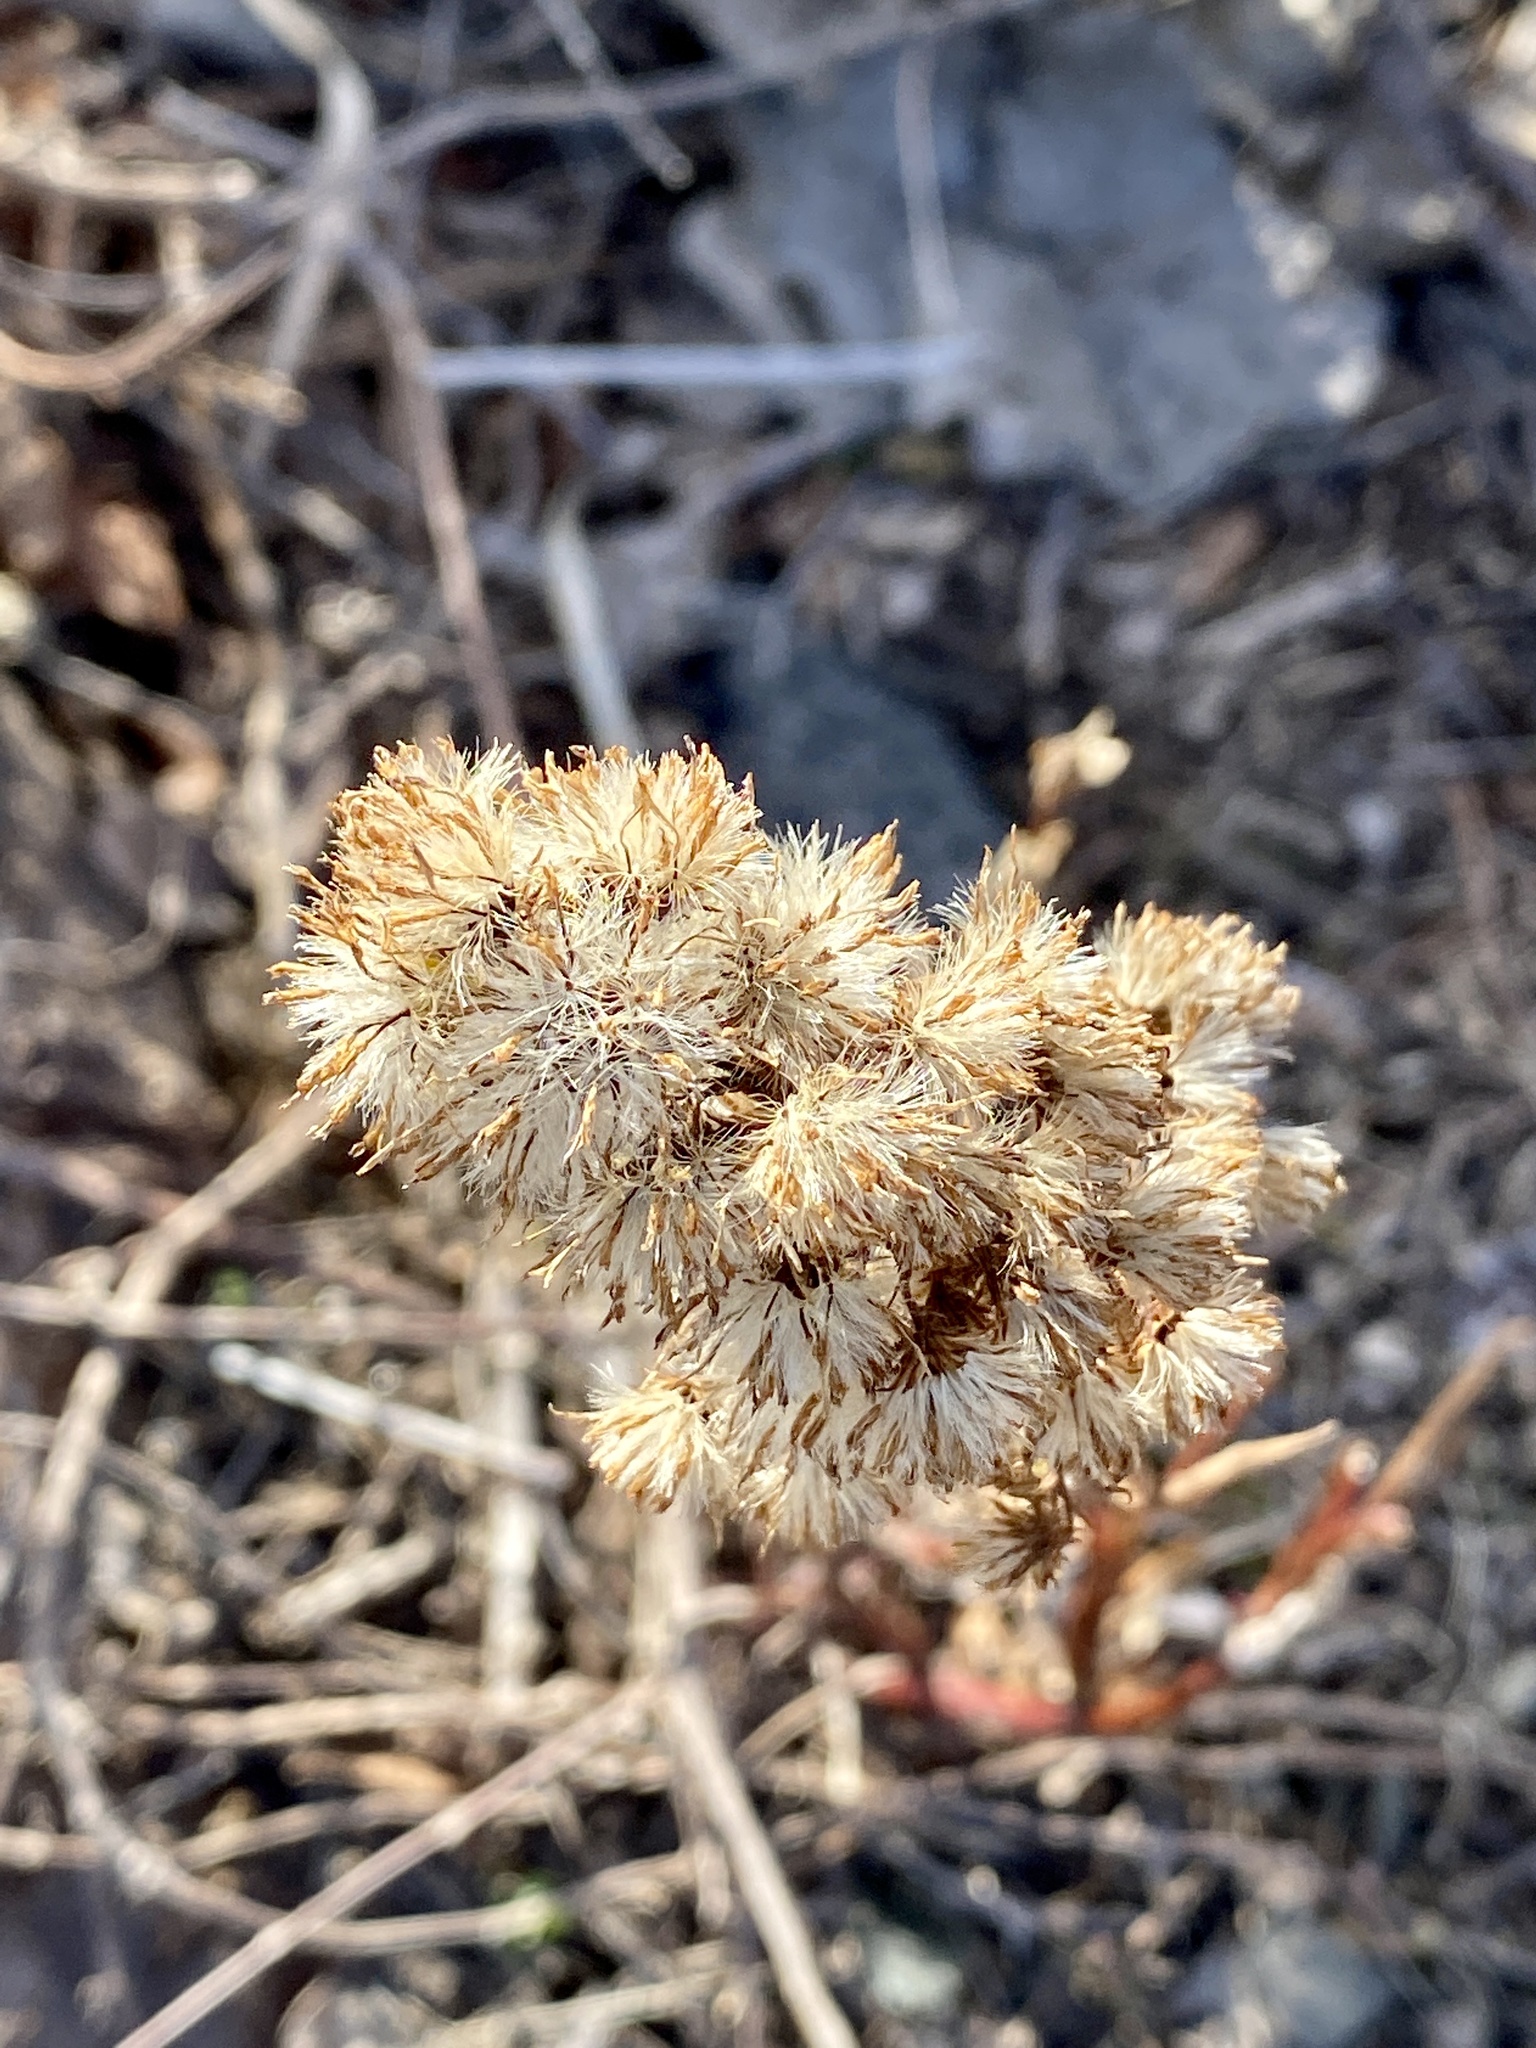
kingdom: Plantae
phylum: Tracheophyta
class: Magnoliopsida
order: Asterales
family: Asteraceae
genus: Solidago
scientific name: Solidago sempervirens
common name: Salt-marsh goldenrod
